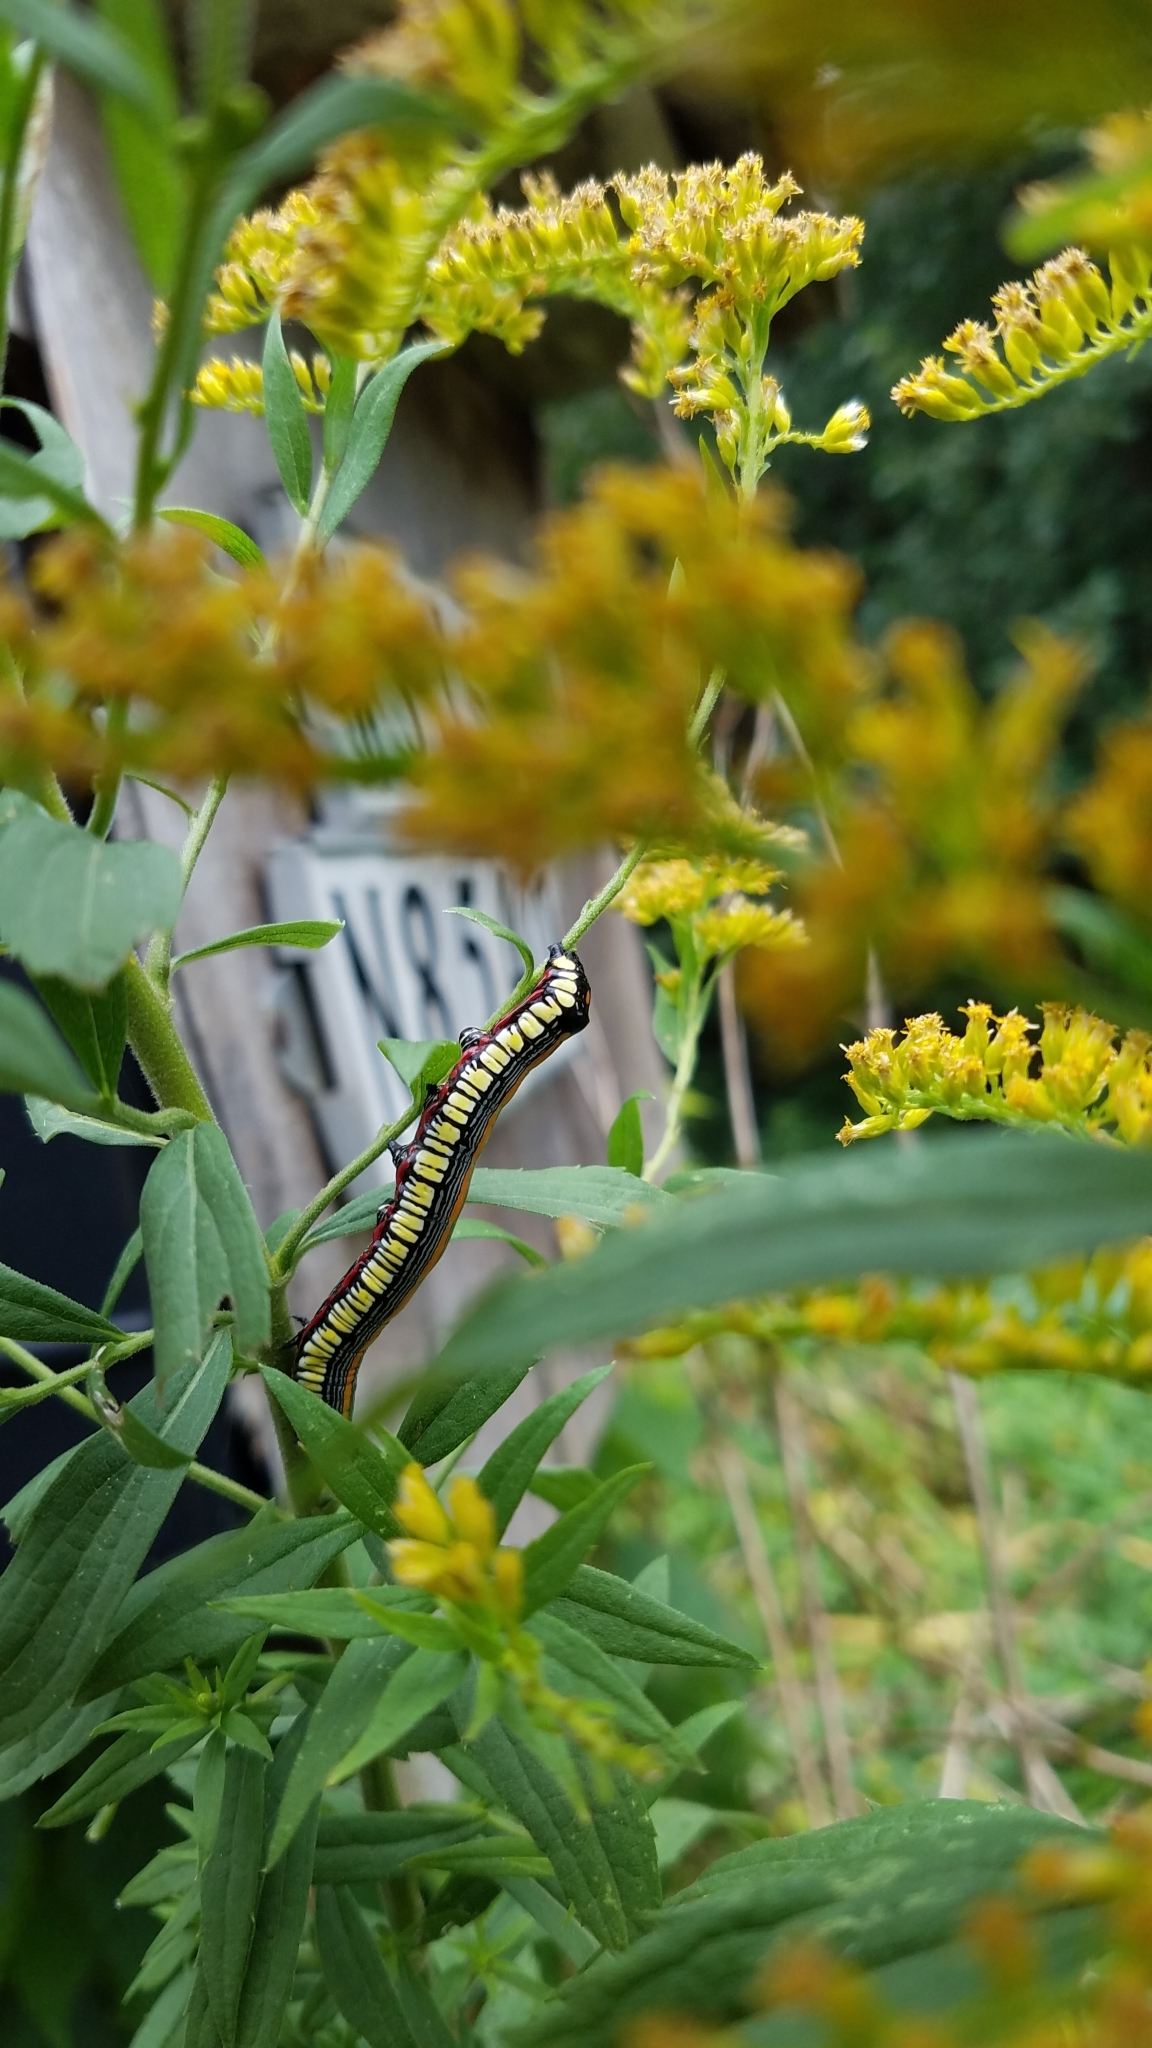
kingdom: Animalia
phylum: Arthropoda
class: Insecta
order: Lepidoptera
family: Noctuidae
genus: Cucullia
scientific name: Cucullia convexipennis
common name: Brown-hooded owlet
